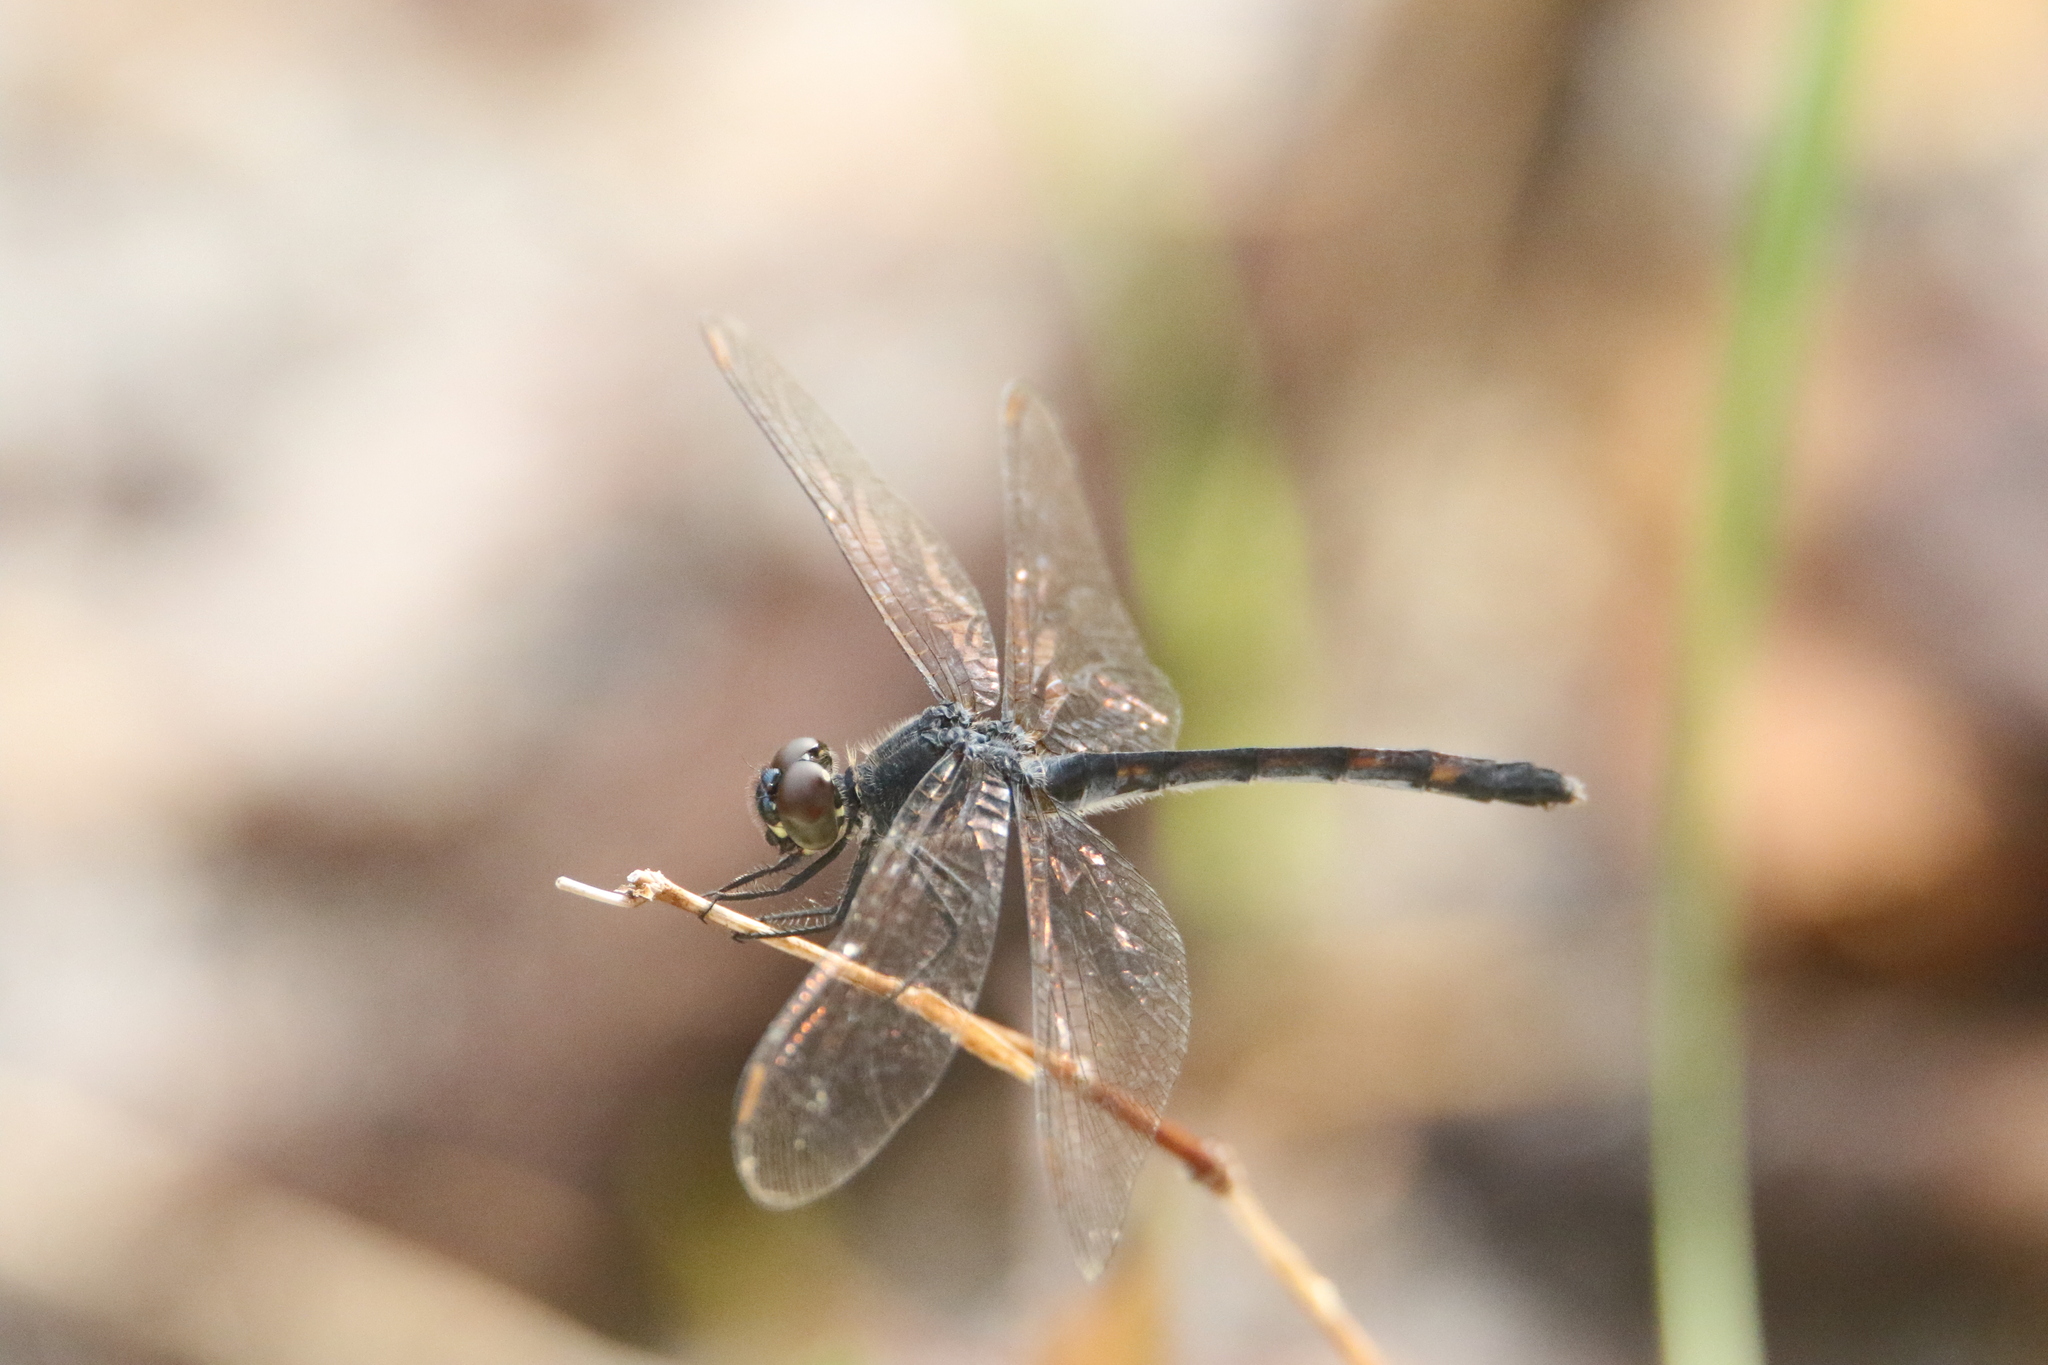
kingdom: Animalia
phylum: Arthropoda
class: Insecta
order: Odonata
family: Libellulidae
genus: Erythrodiplax
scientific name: Erythrodiplax berenice
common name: Seaside dragonlet
